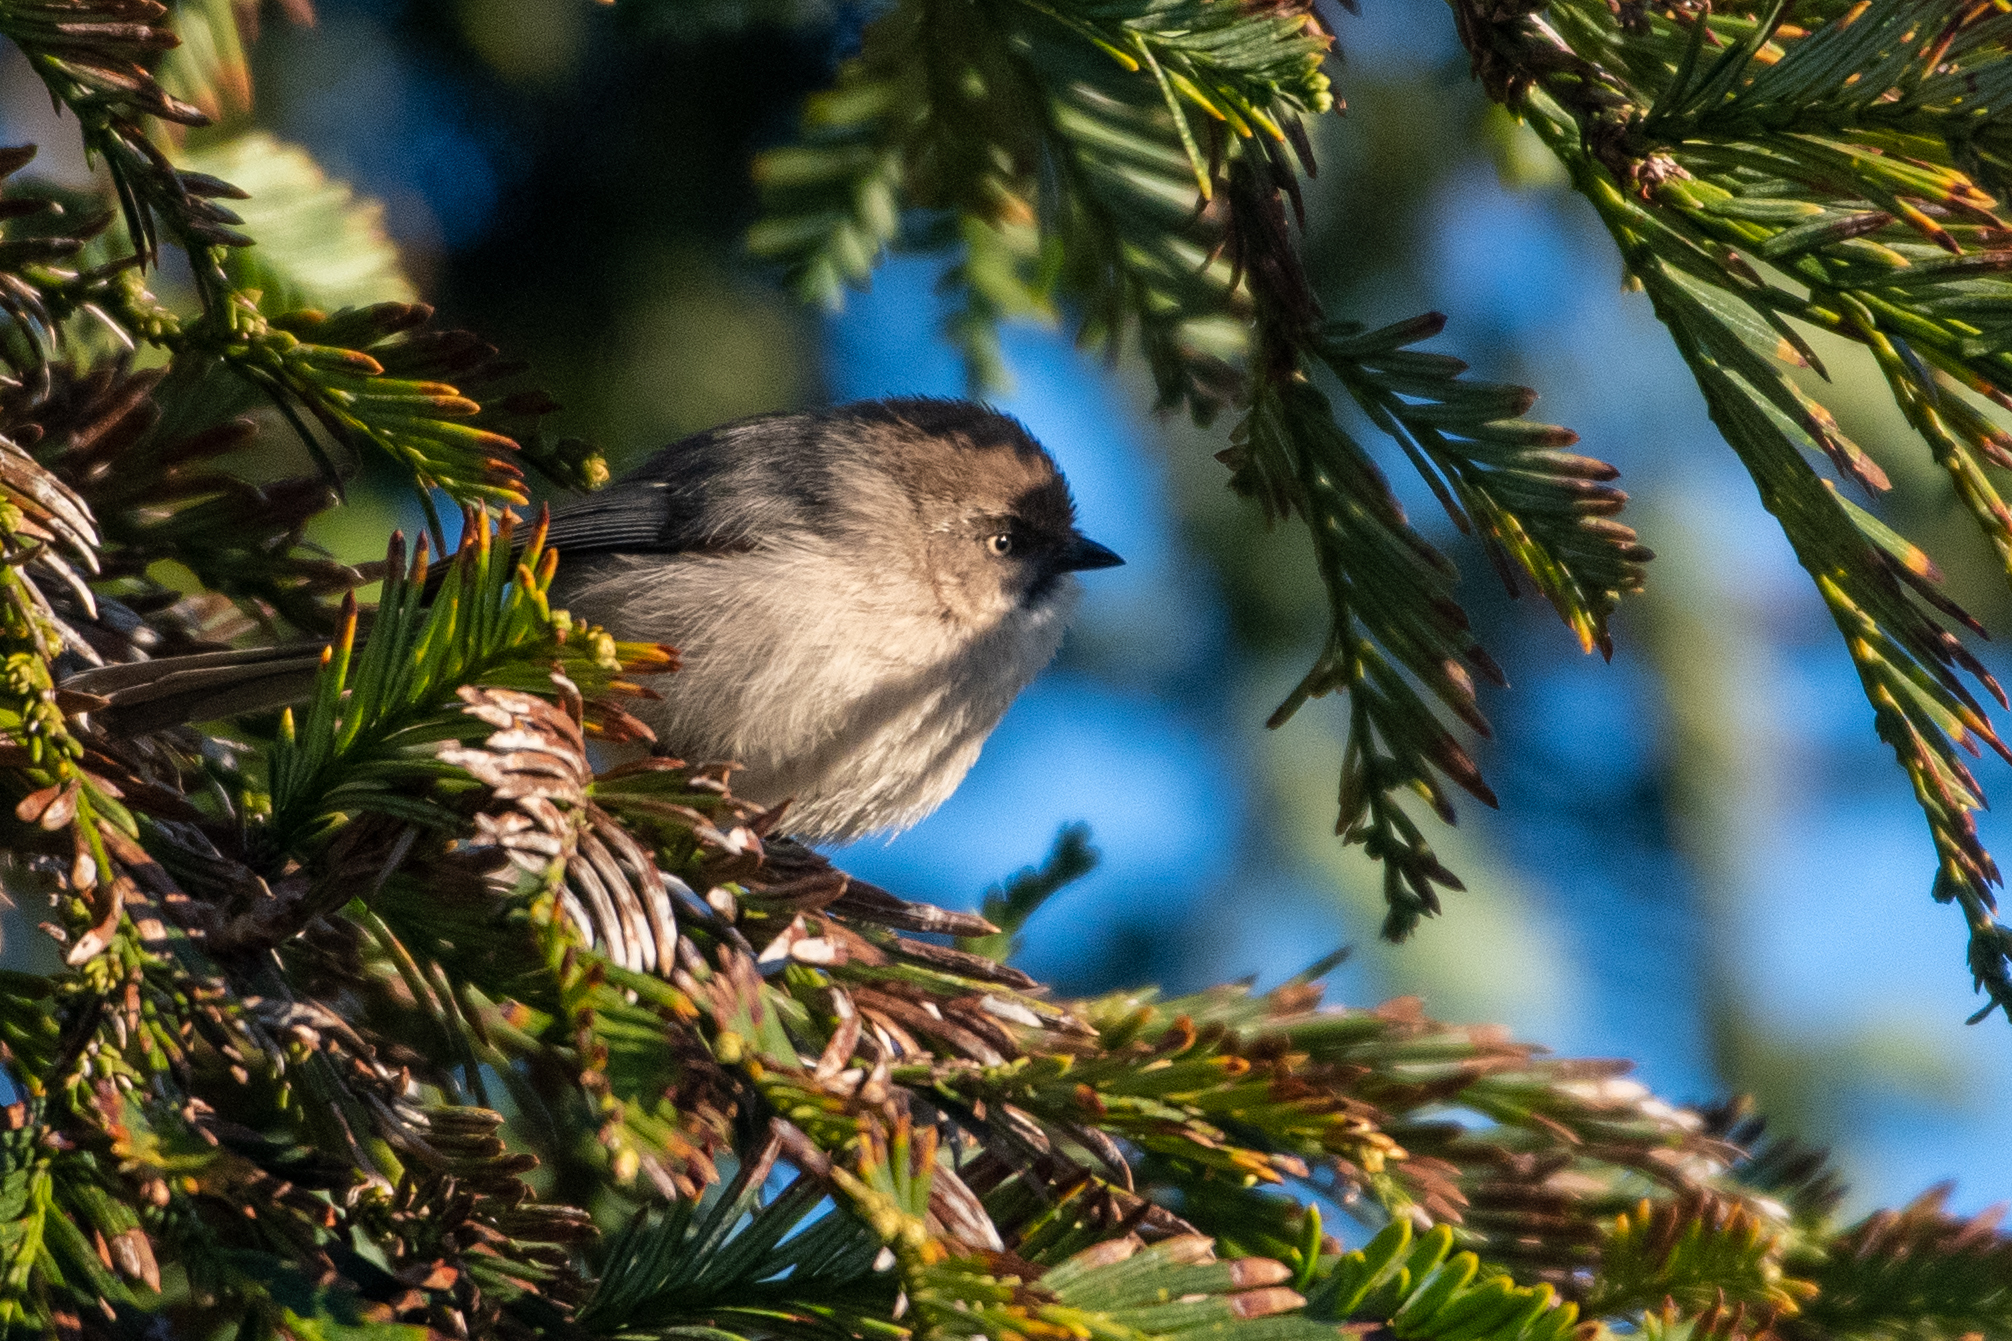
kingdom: Animalia
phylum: Chordata
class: Aves
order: Passeriformes
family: Aegithalidae
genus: Psaltriparus
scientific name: Psaltriparus minimus
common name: American bushtit
